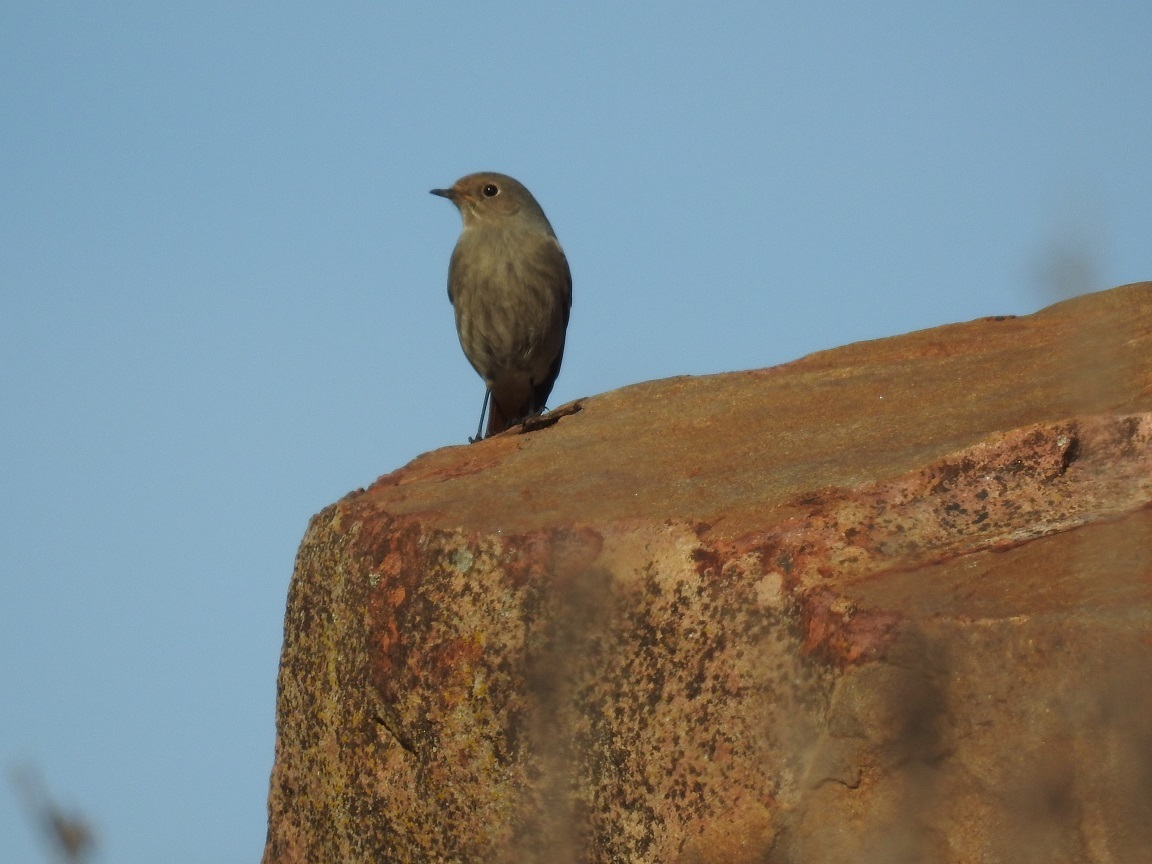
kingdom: Animalia
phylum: Chordata
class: Aves
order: Passeriformes
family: Muscicapidae
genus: Phoenicurus
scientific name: Phoenicurus ochruros
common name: Black redstart
